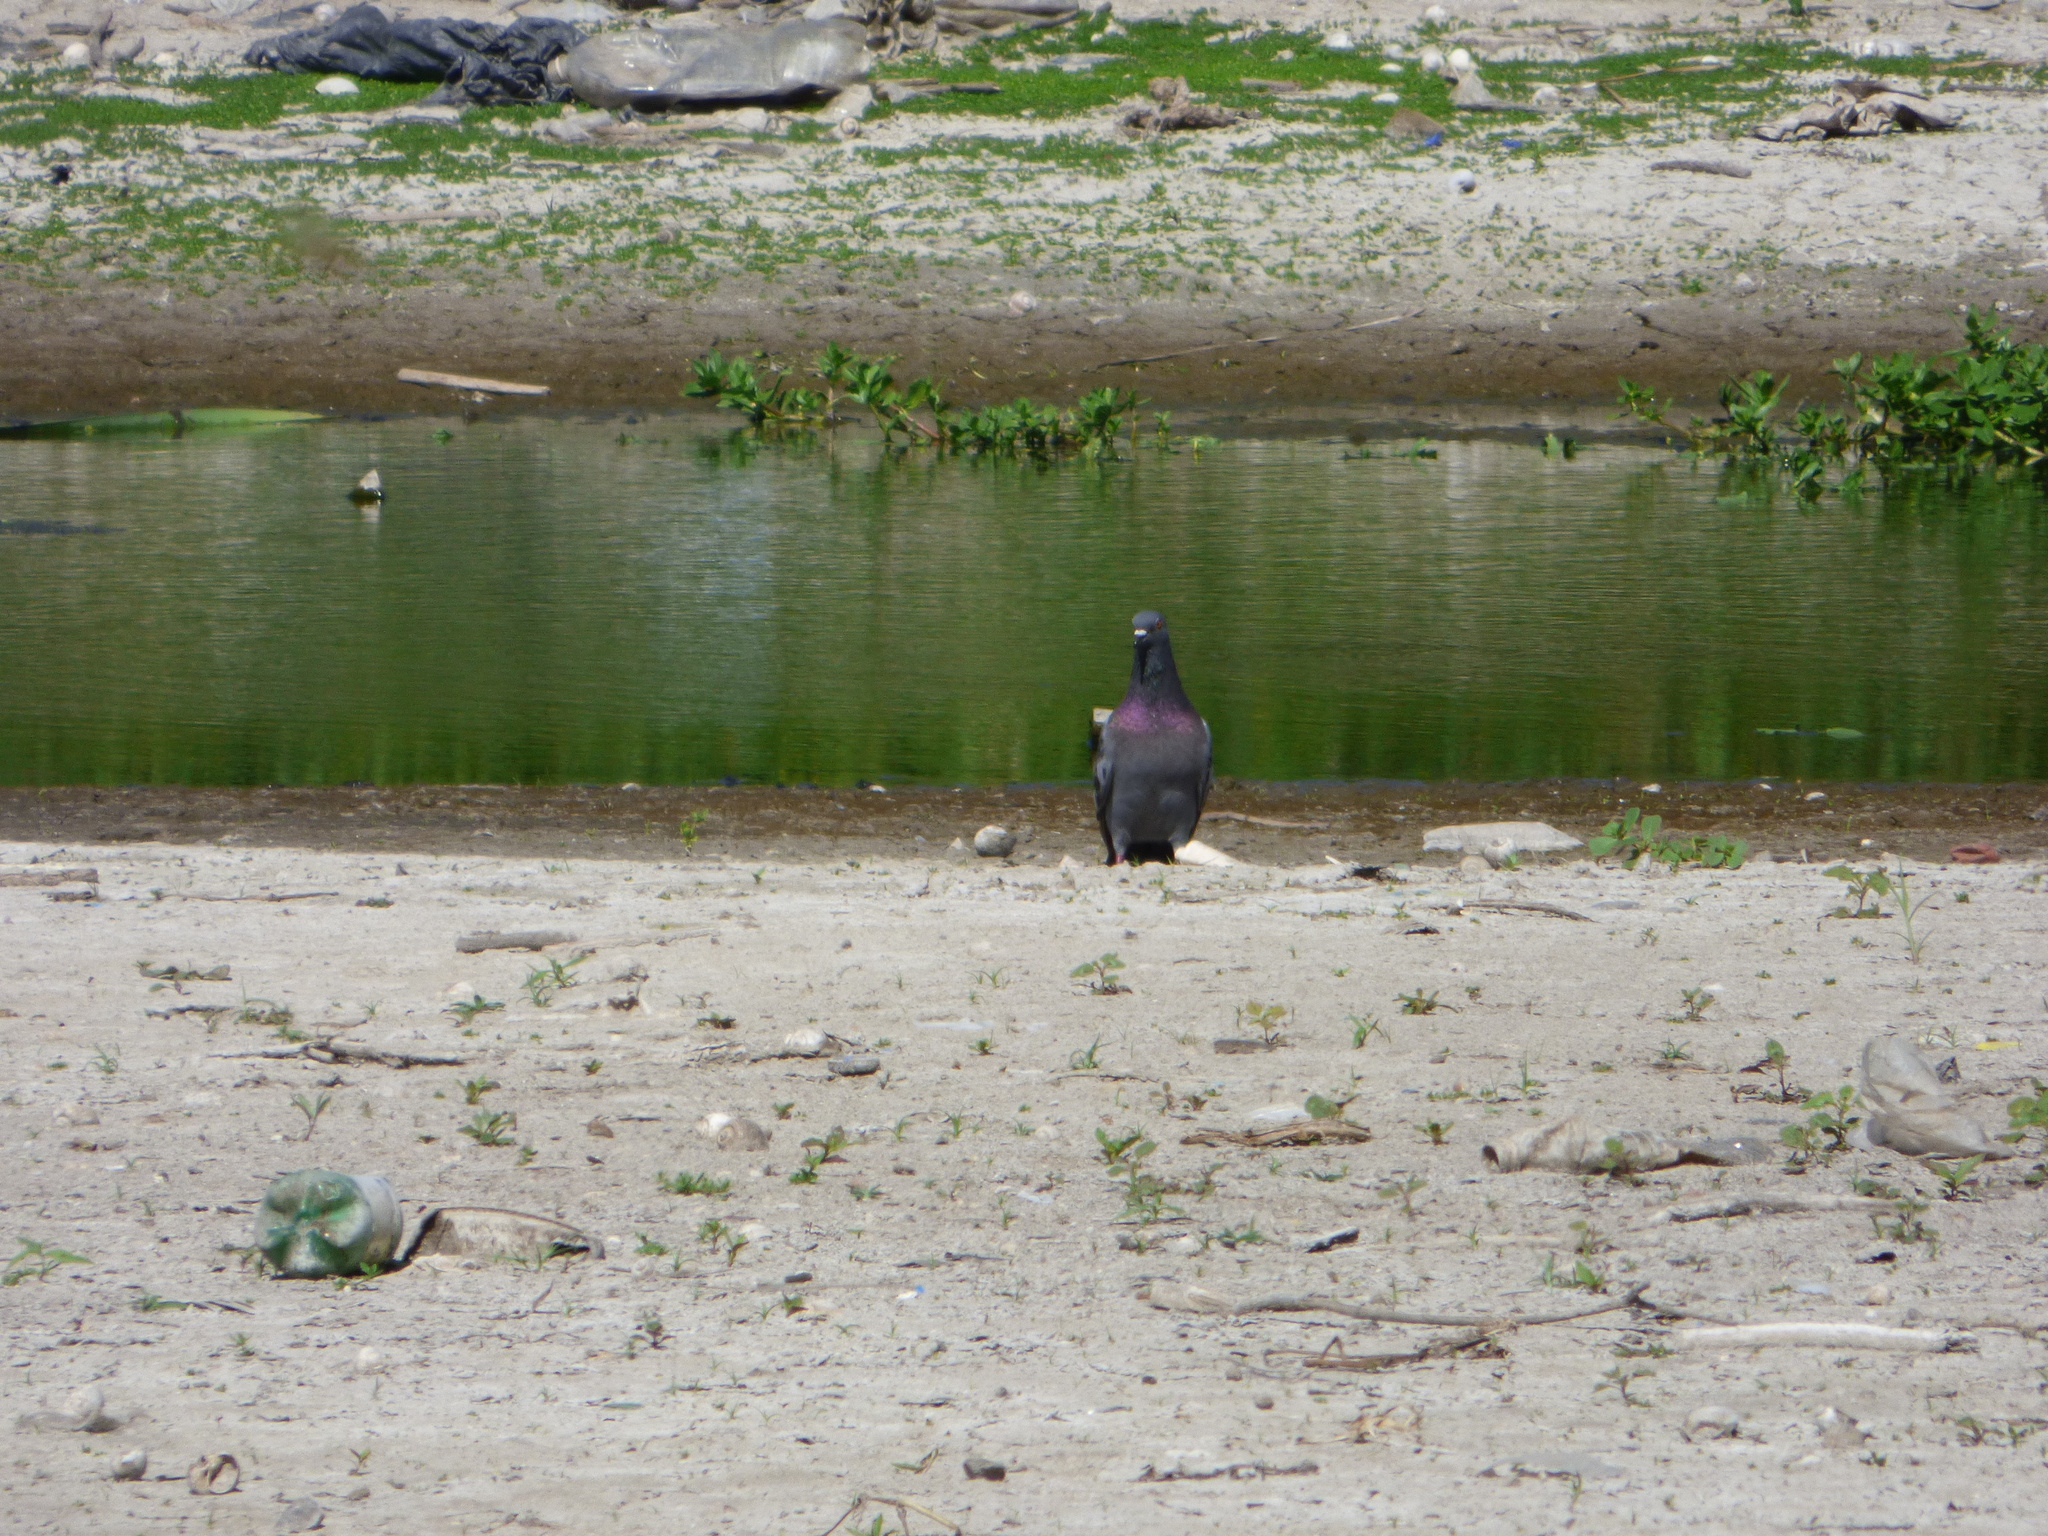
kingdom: Animalia
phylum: Chordata
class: Aves
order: Columbiformes
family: Columbidae
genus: Columba
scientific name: Columba livia
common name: Rock pigeon
